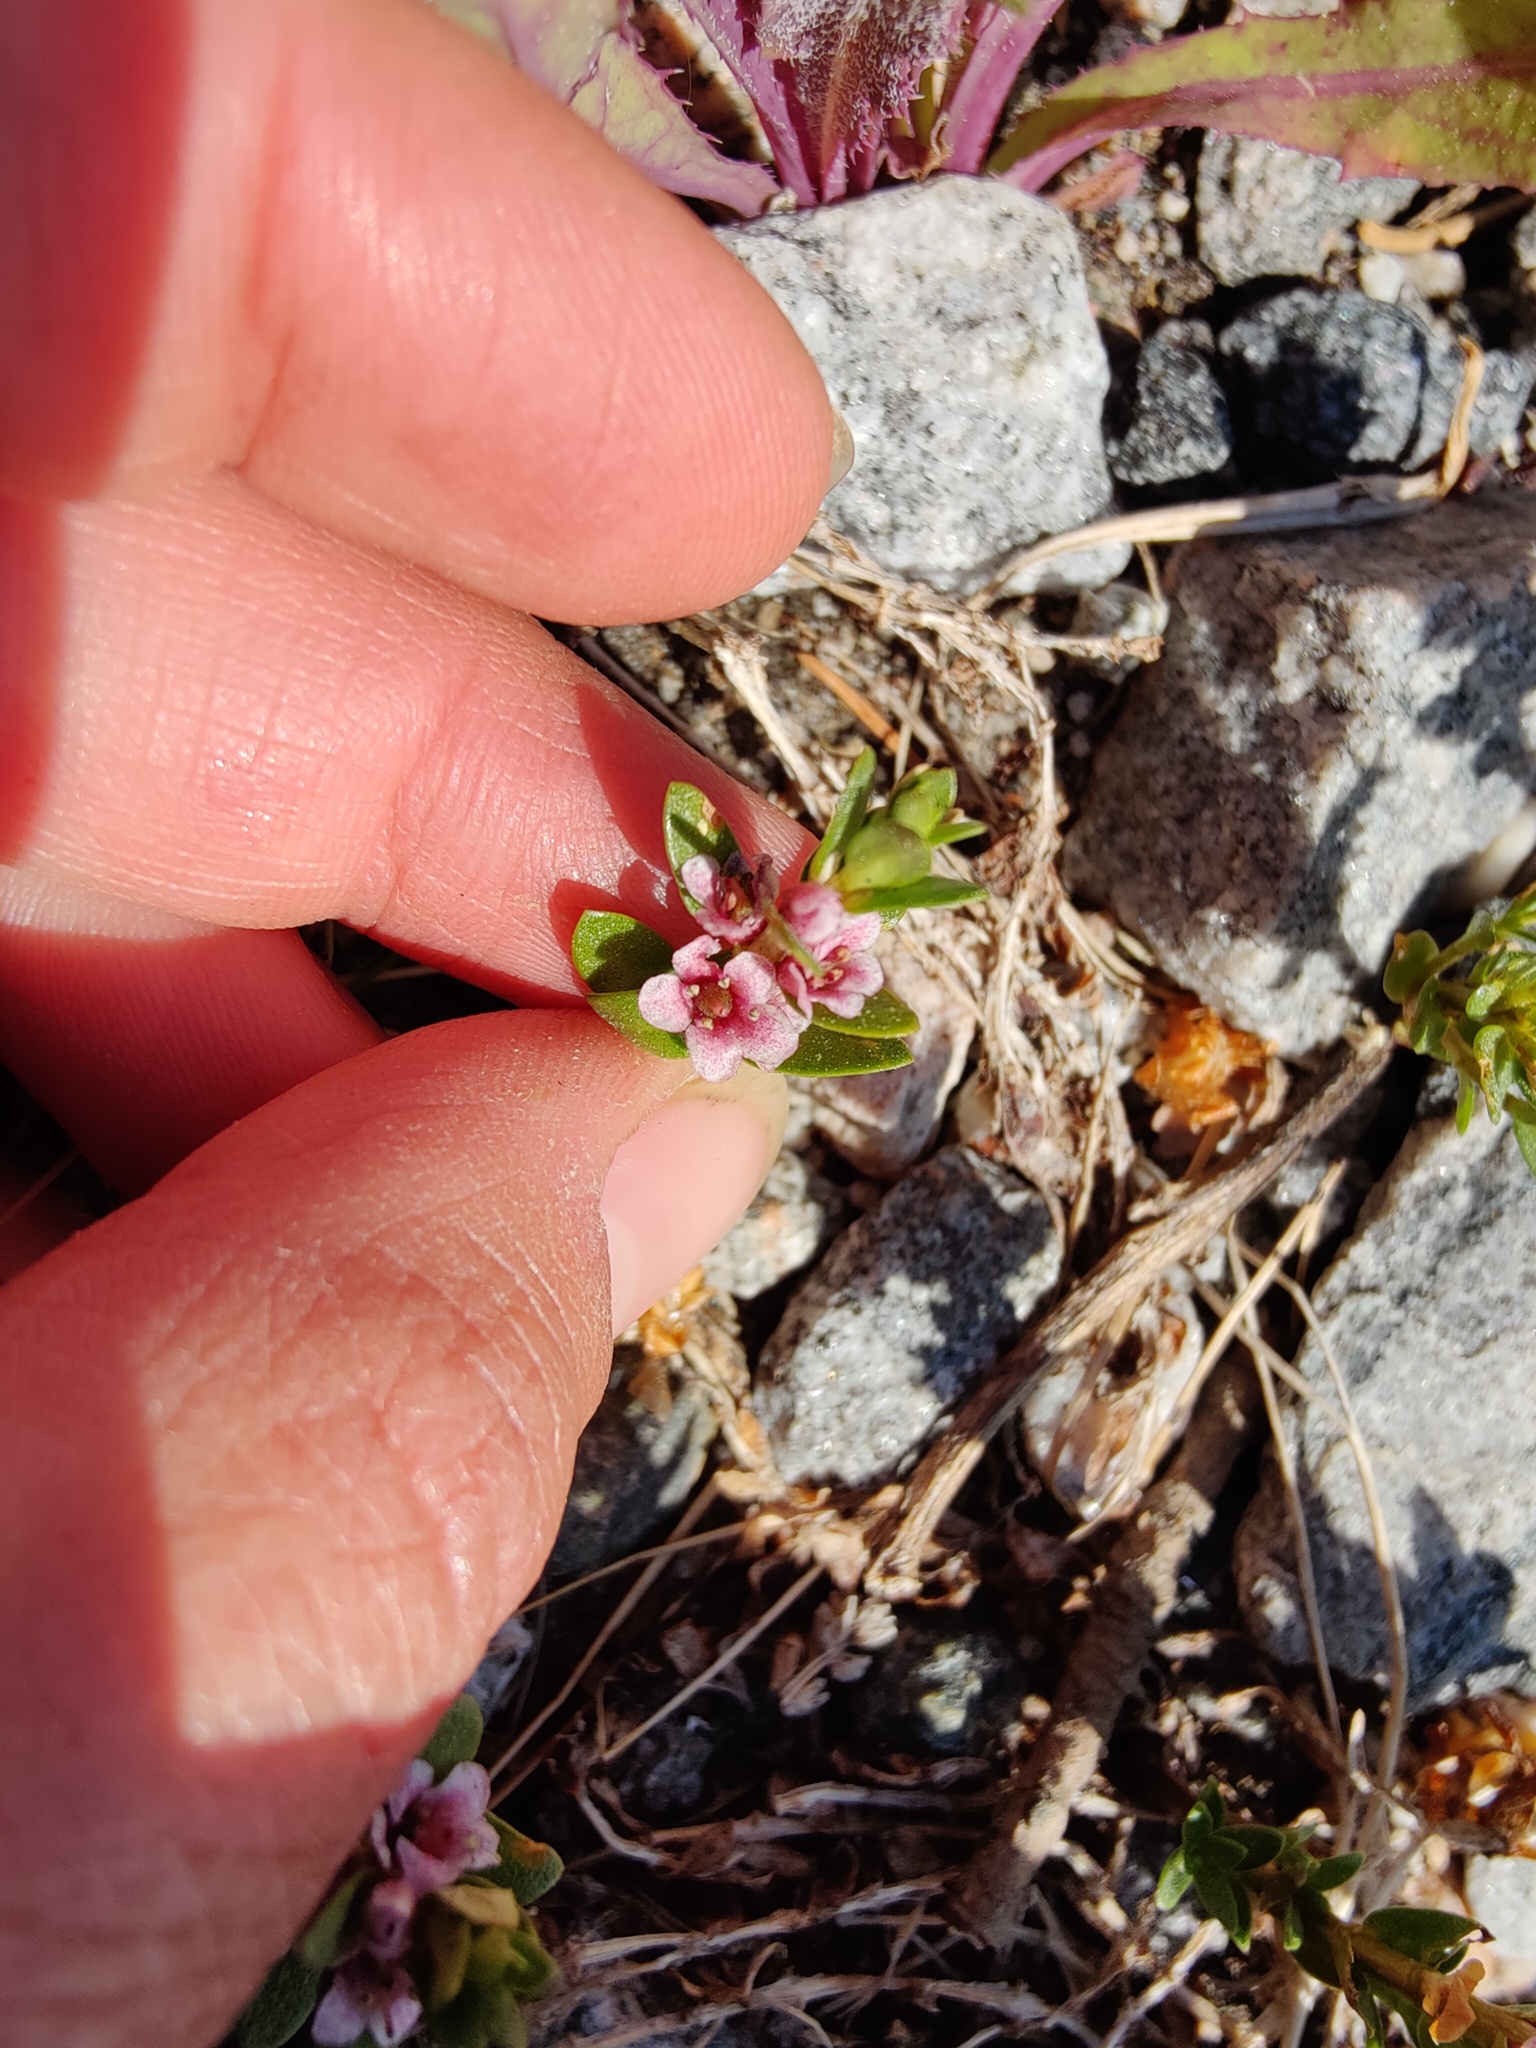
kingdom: Plantae
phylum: Tracheophyta
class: Magnoliopsida
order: Ericales
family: Primulaceae
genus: Lysimachia
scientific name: Lysimachia maritima
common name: Sea milkwort
